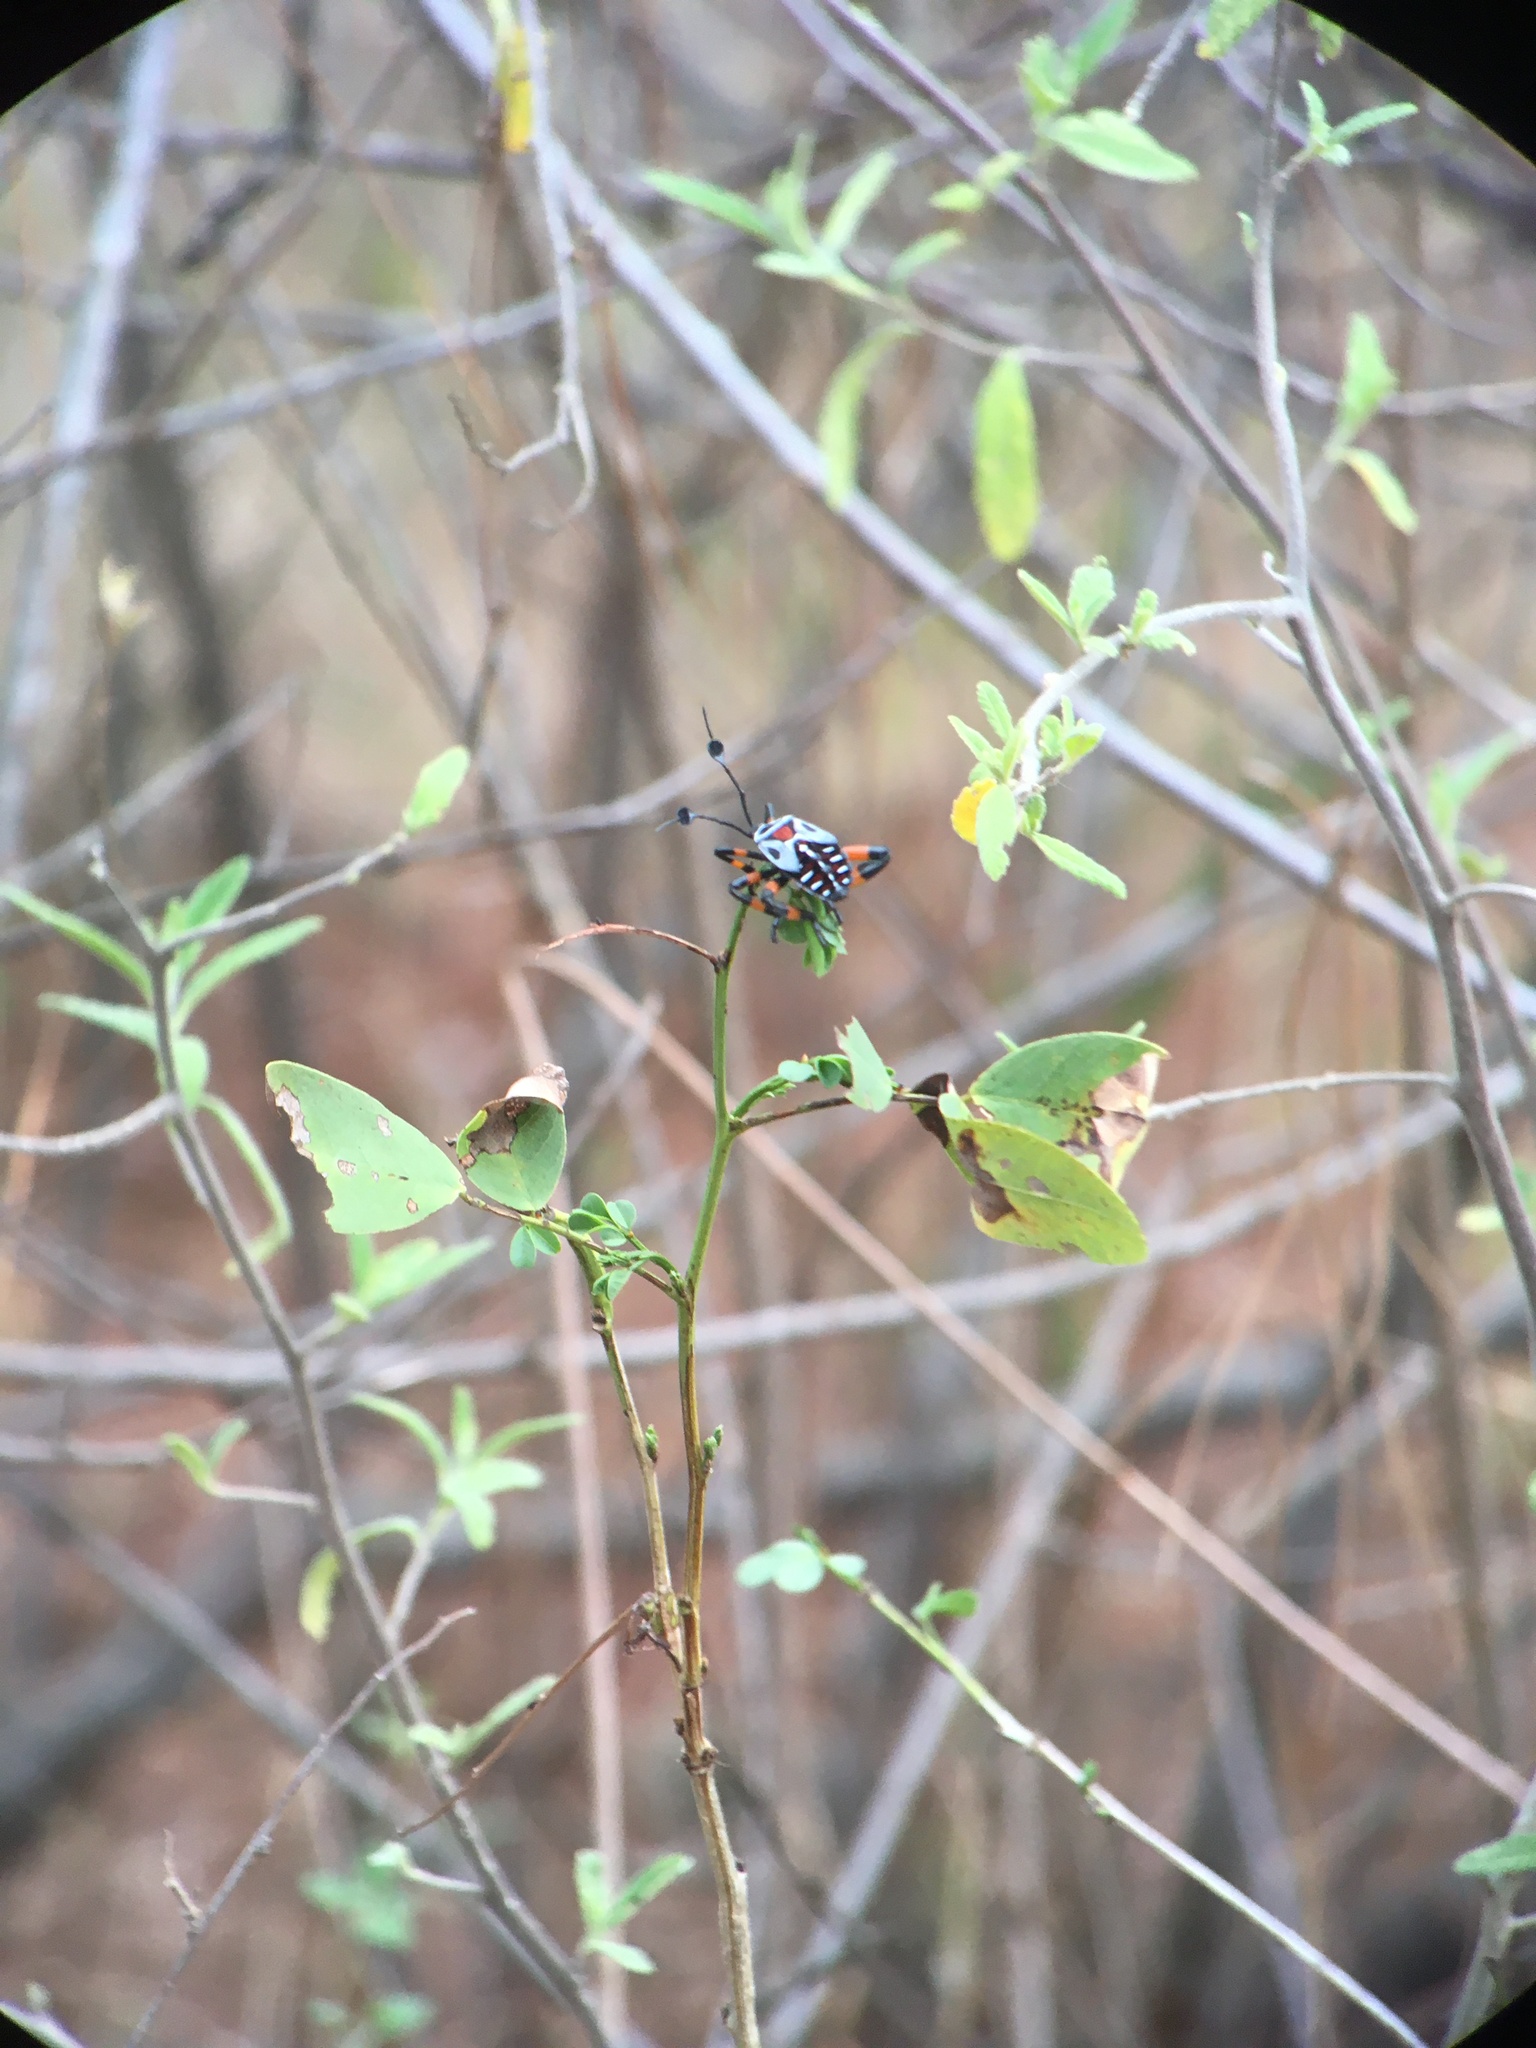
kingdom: Animalia
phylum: Arthropoda
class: Insecta
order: Hemiptera
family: Coreidae
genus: Thasus
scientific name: Thasus
